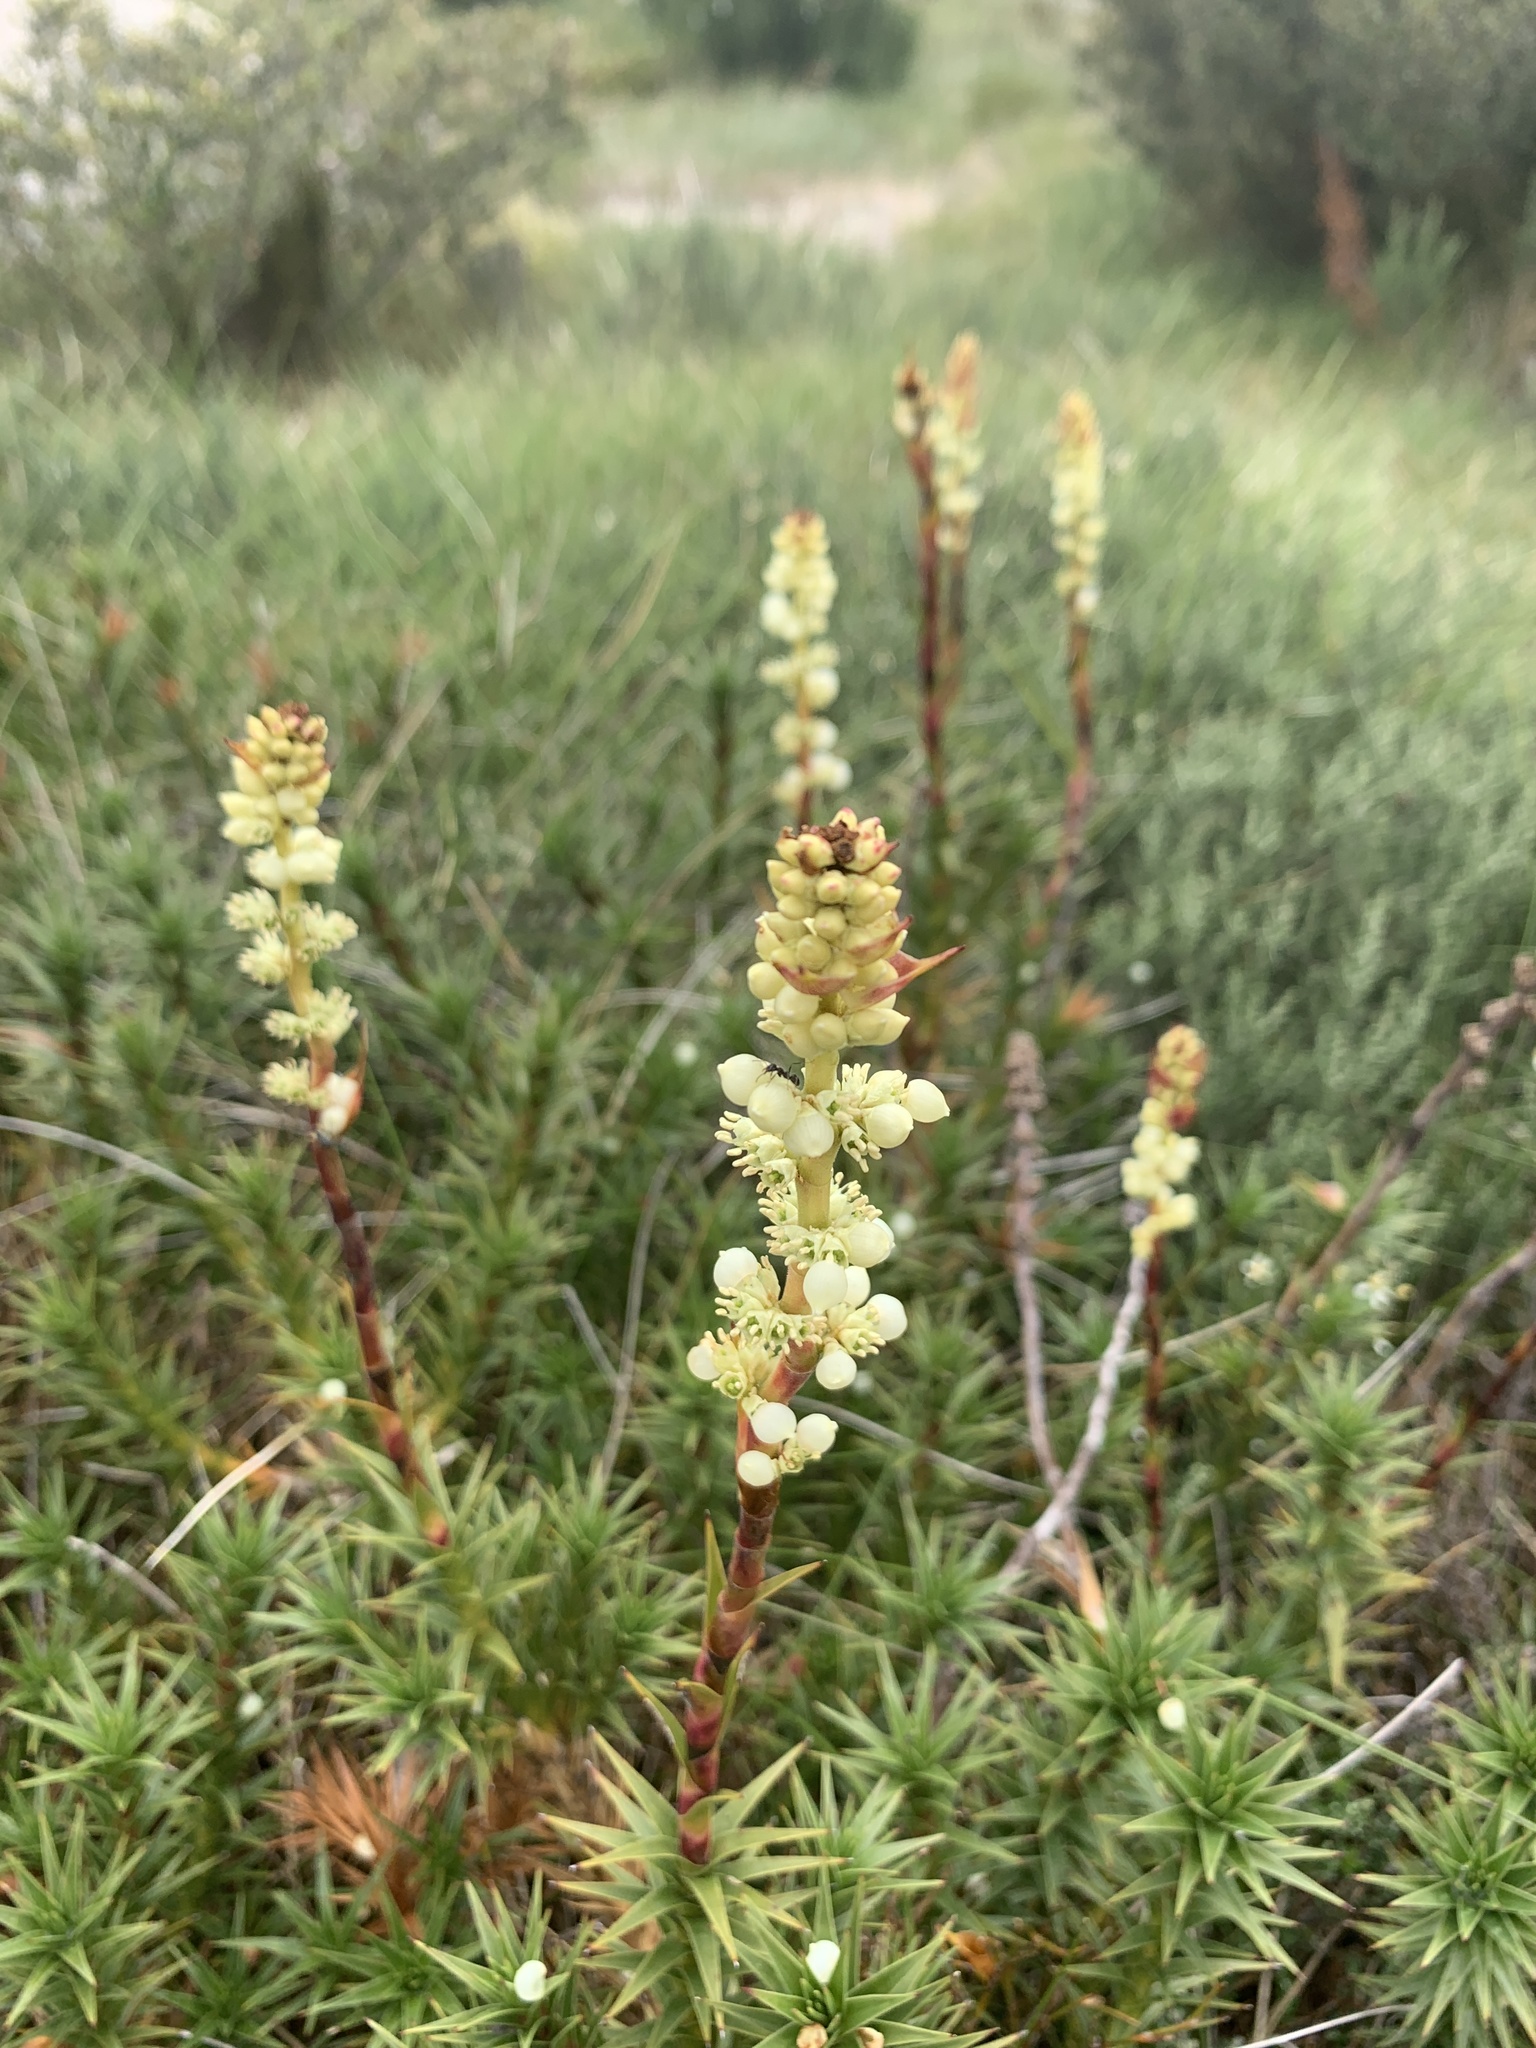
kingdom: Plantae
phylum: Tracheophyta
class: Magnoliopsida
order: Ericales
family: Ericaceae
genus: Dracophyllum
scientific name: Dracophyllum continentis
